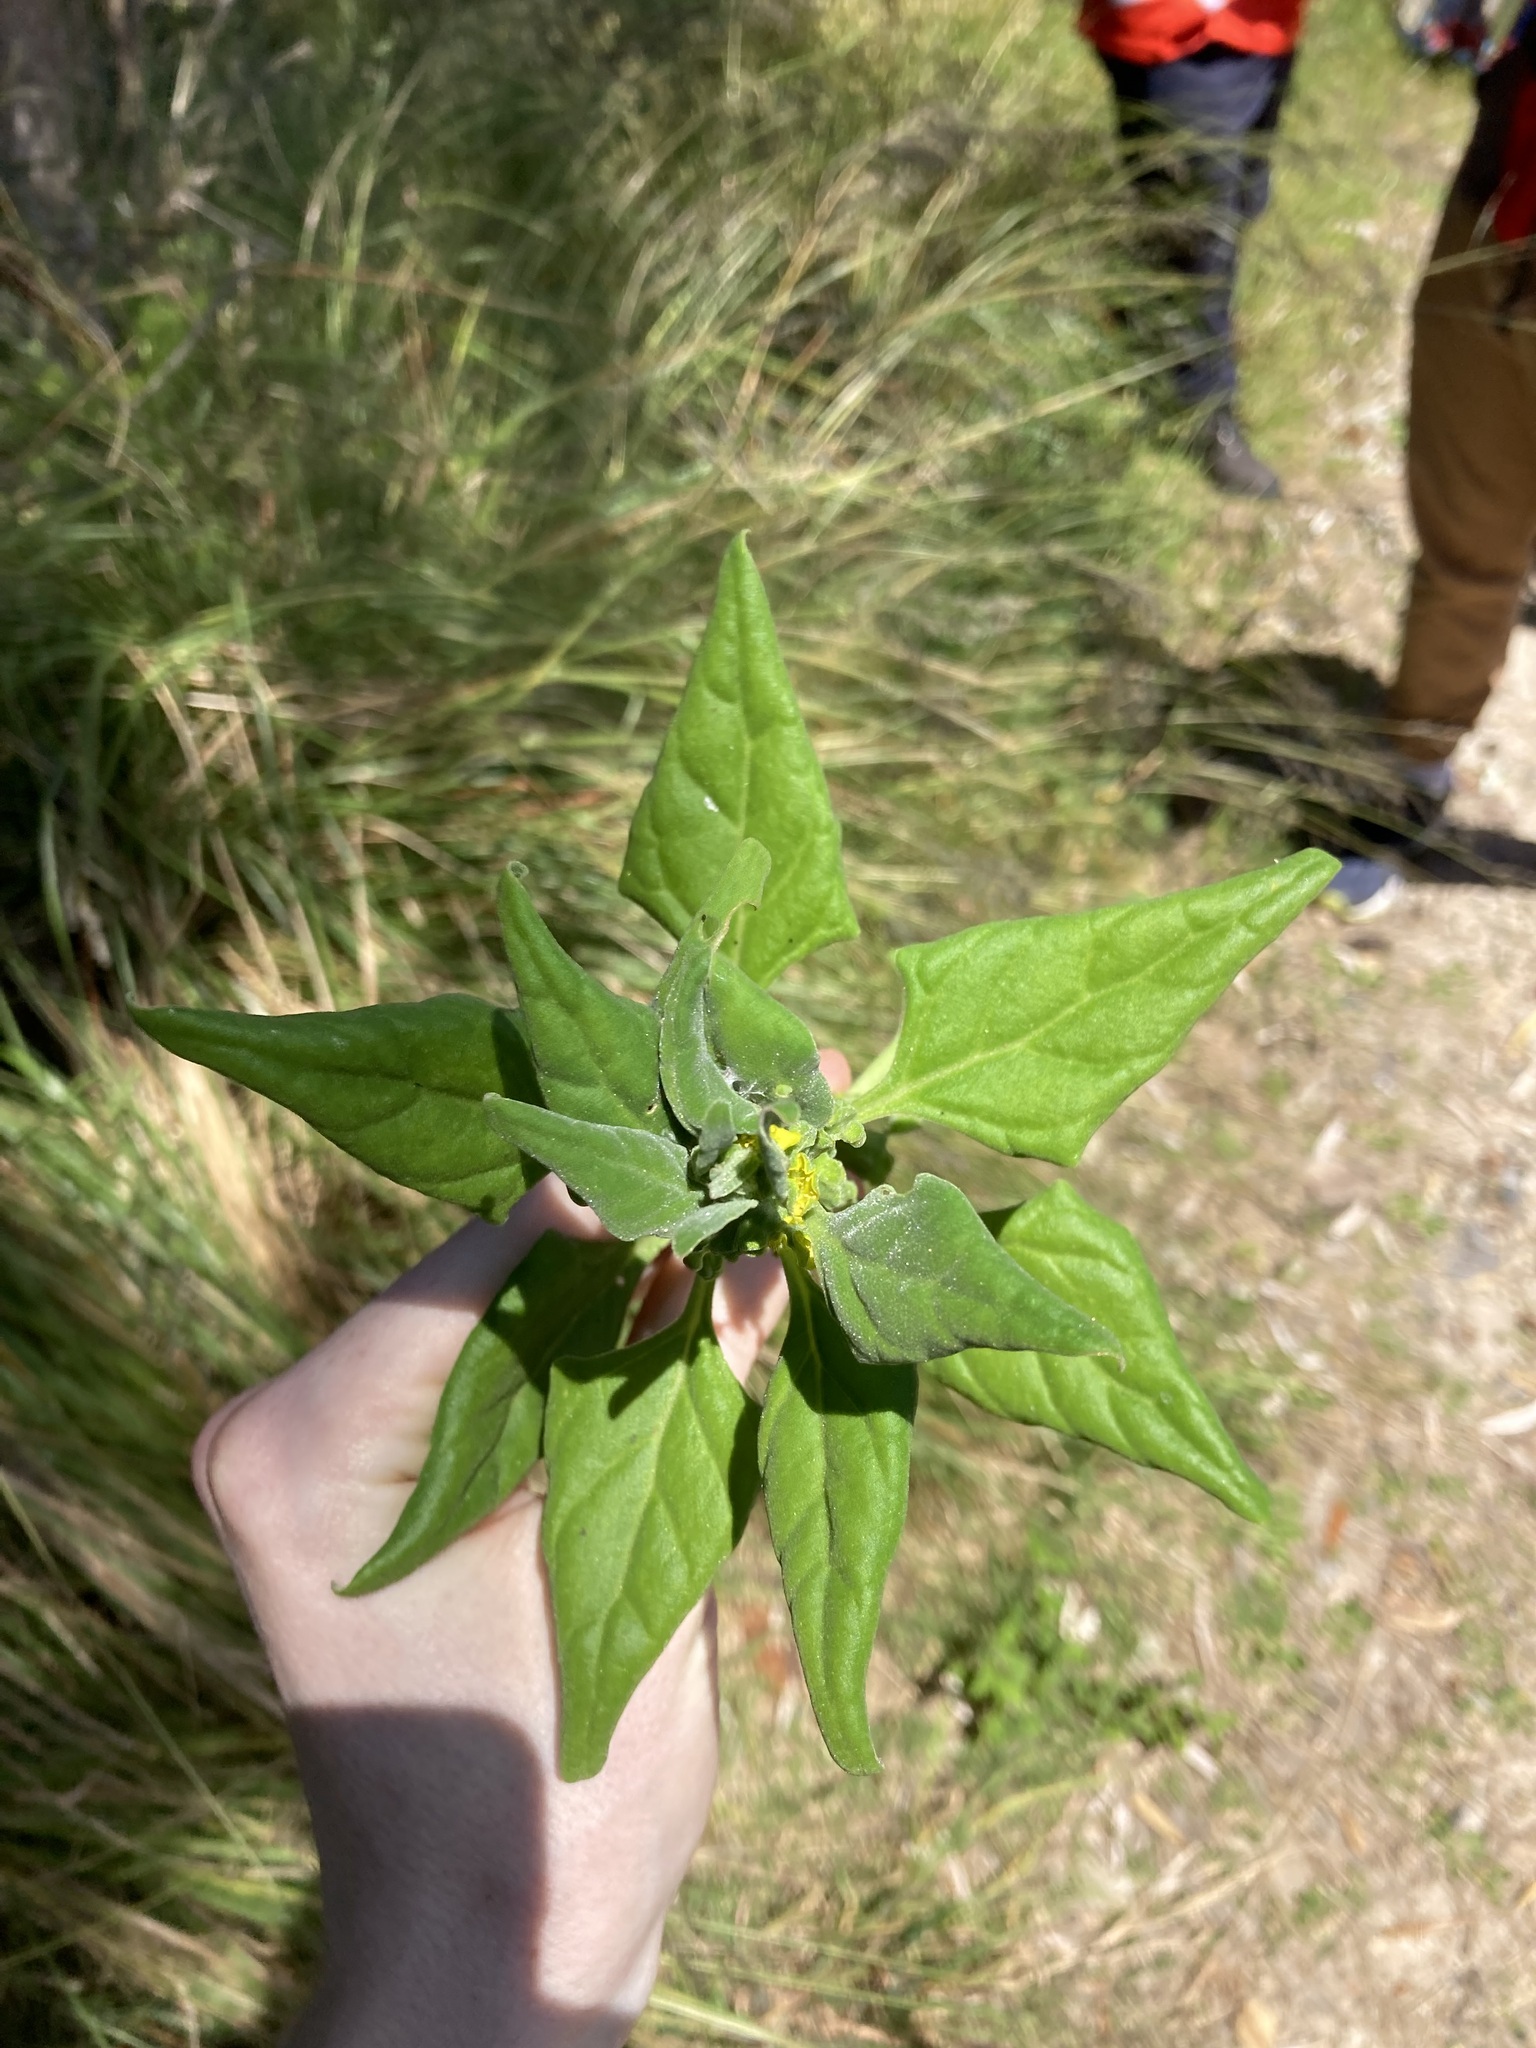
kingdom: Plantae
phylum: Tracheophyta
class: Magnoliopsida
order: Caryophyllales
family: Aizoaceae
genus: Tetragonia
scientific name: Tetragonia tetragonoides
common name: New zealand-spinach
